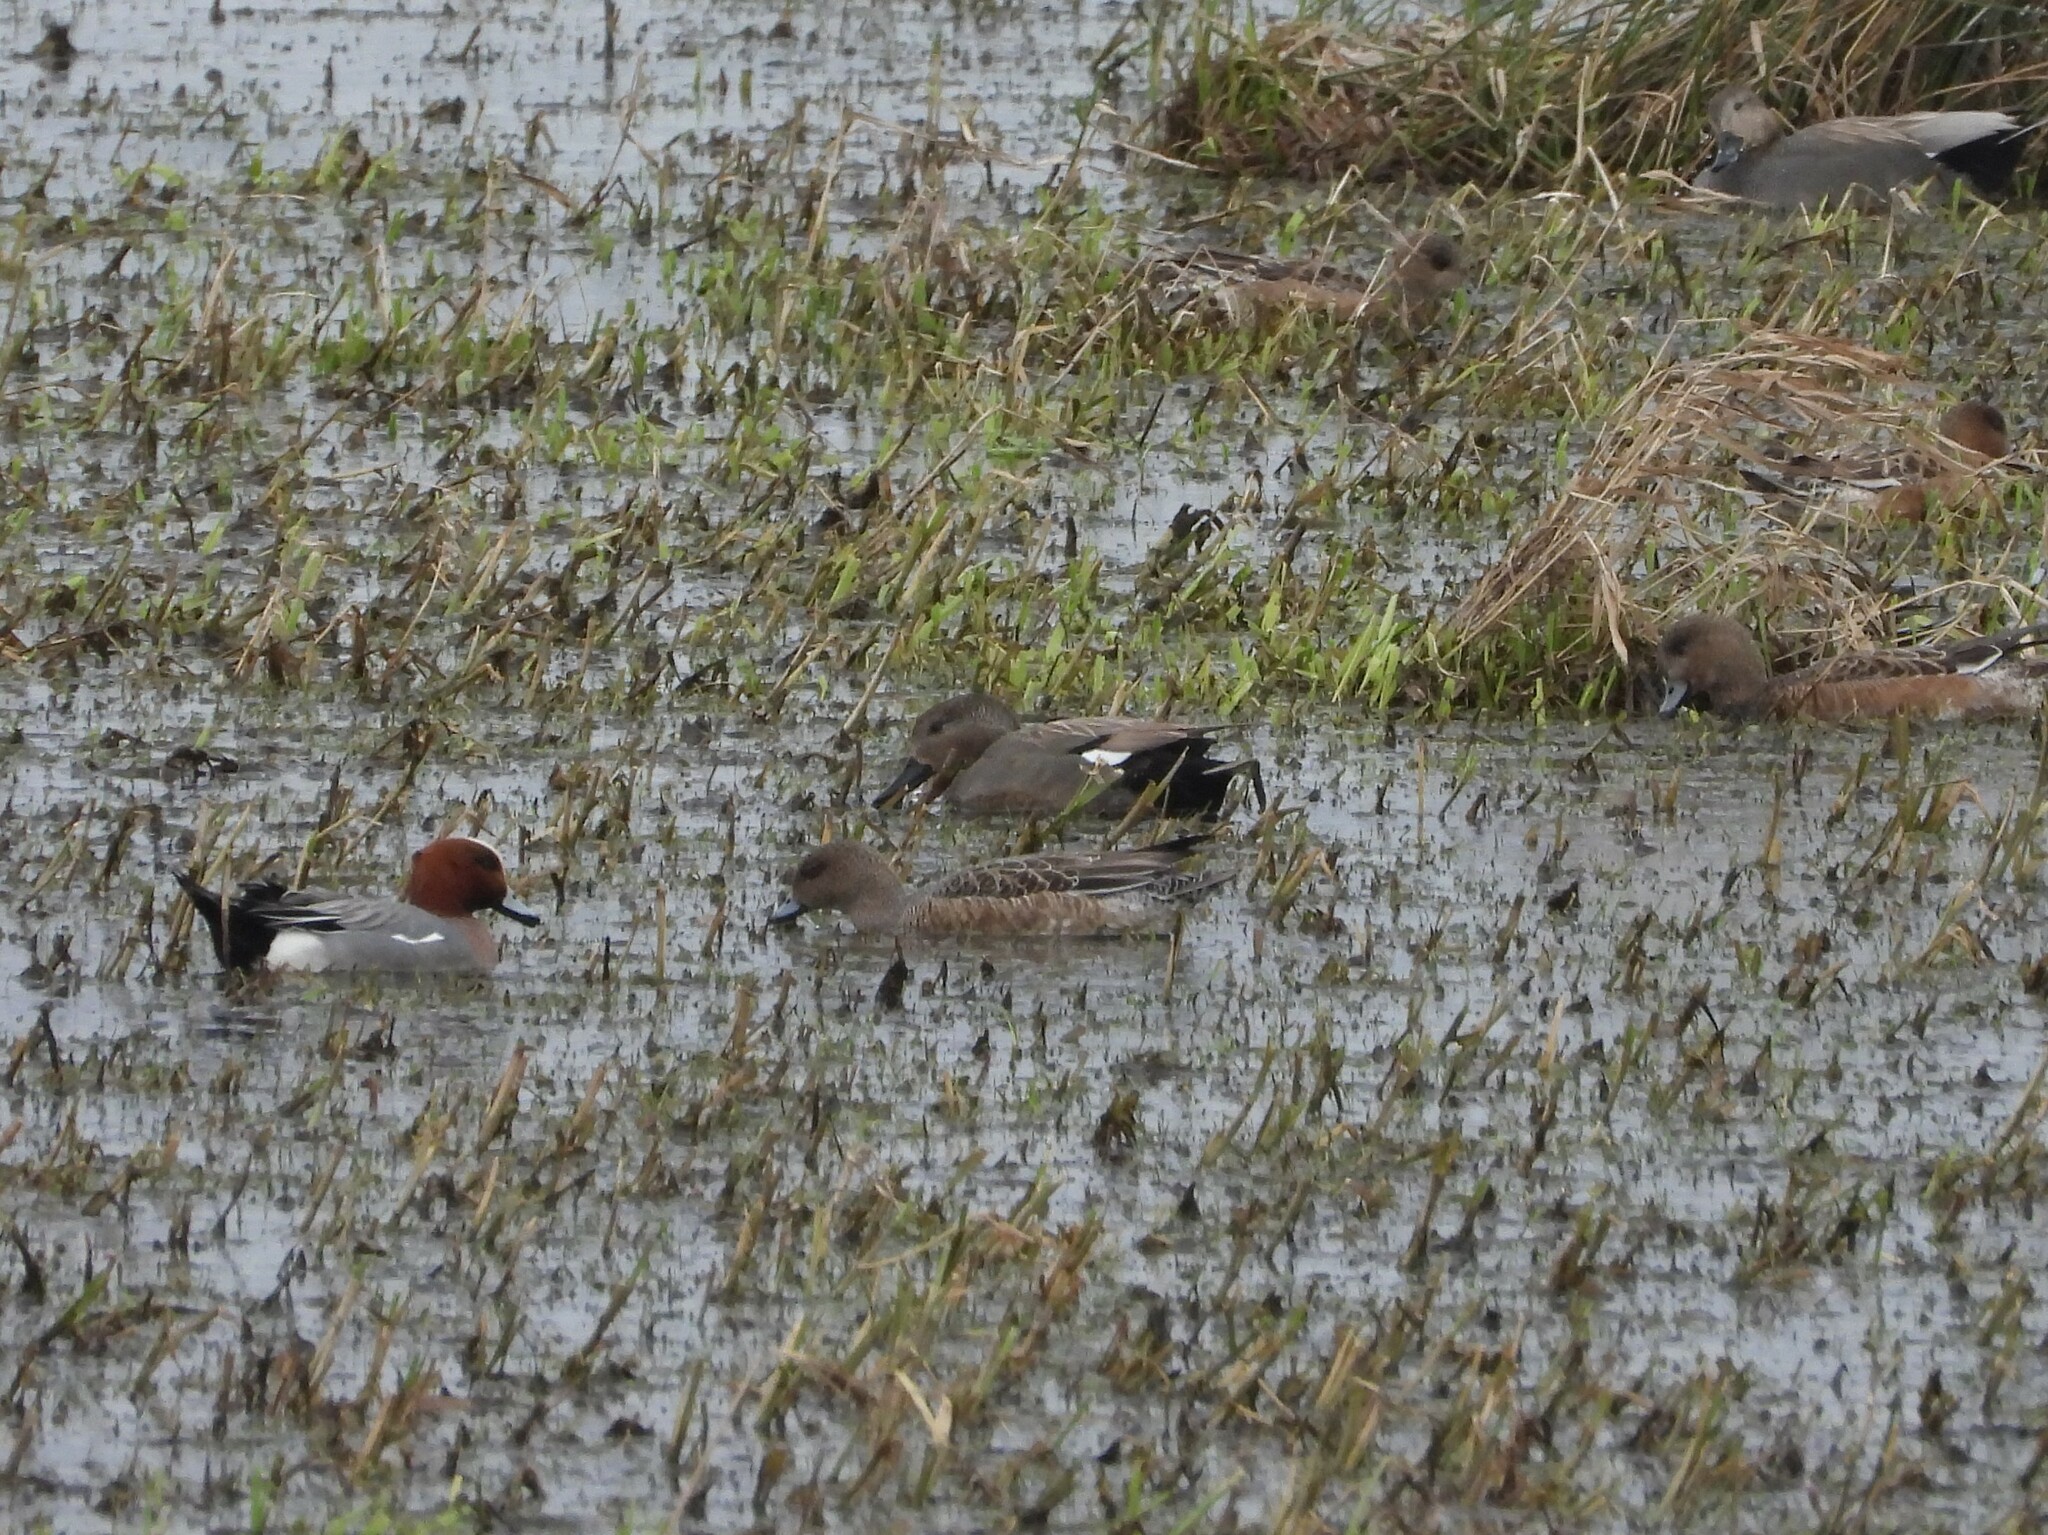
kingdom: Animalia
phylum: Chordata
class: Aves
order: Anseriformes
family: Anatidae
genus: Mareca
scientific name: Mareca strepera
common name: Gadwall
